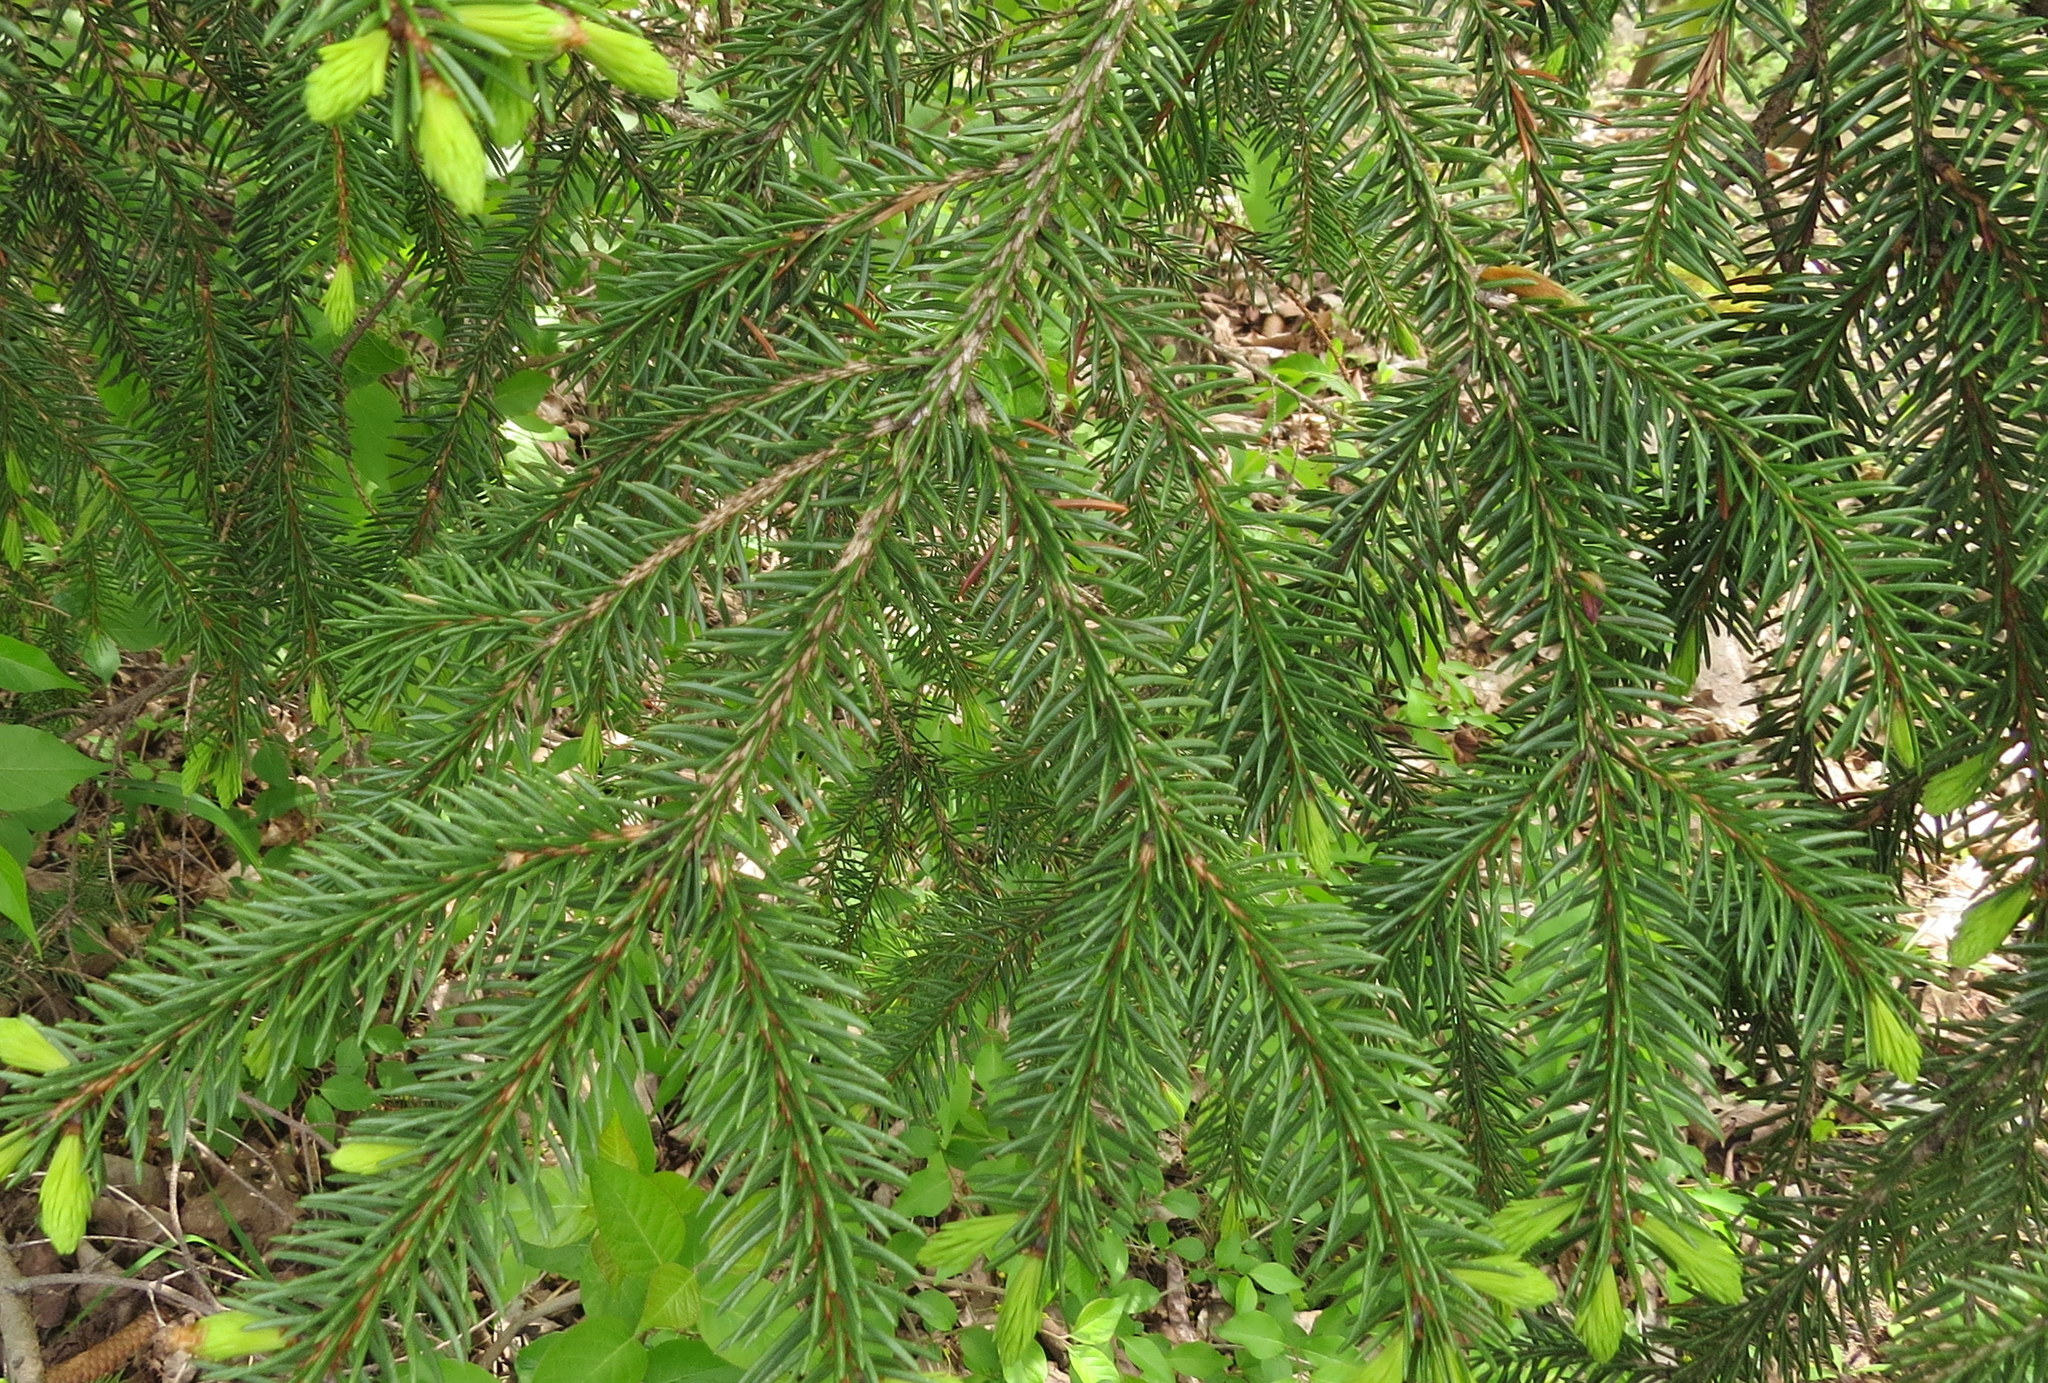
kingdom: Plantae
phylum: Tracheophyta
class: Pinopsida
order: Pinales
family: Pinaceae
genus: Picea
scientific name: Picea abies
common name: Norway spruce
